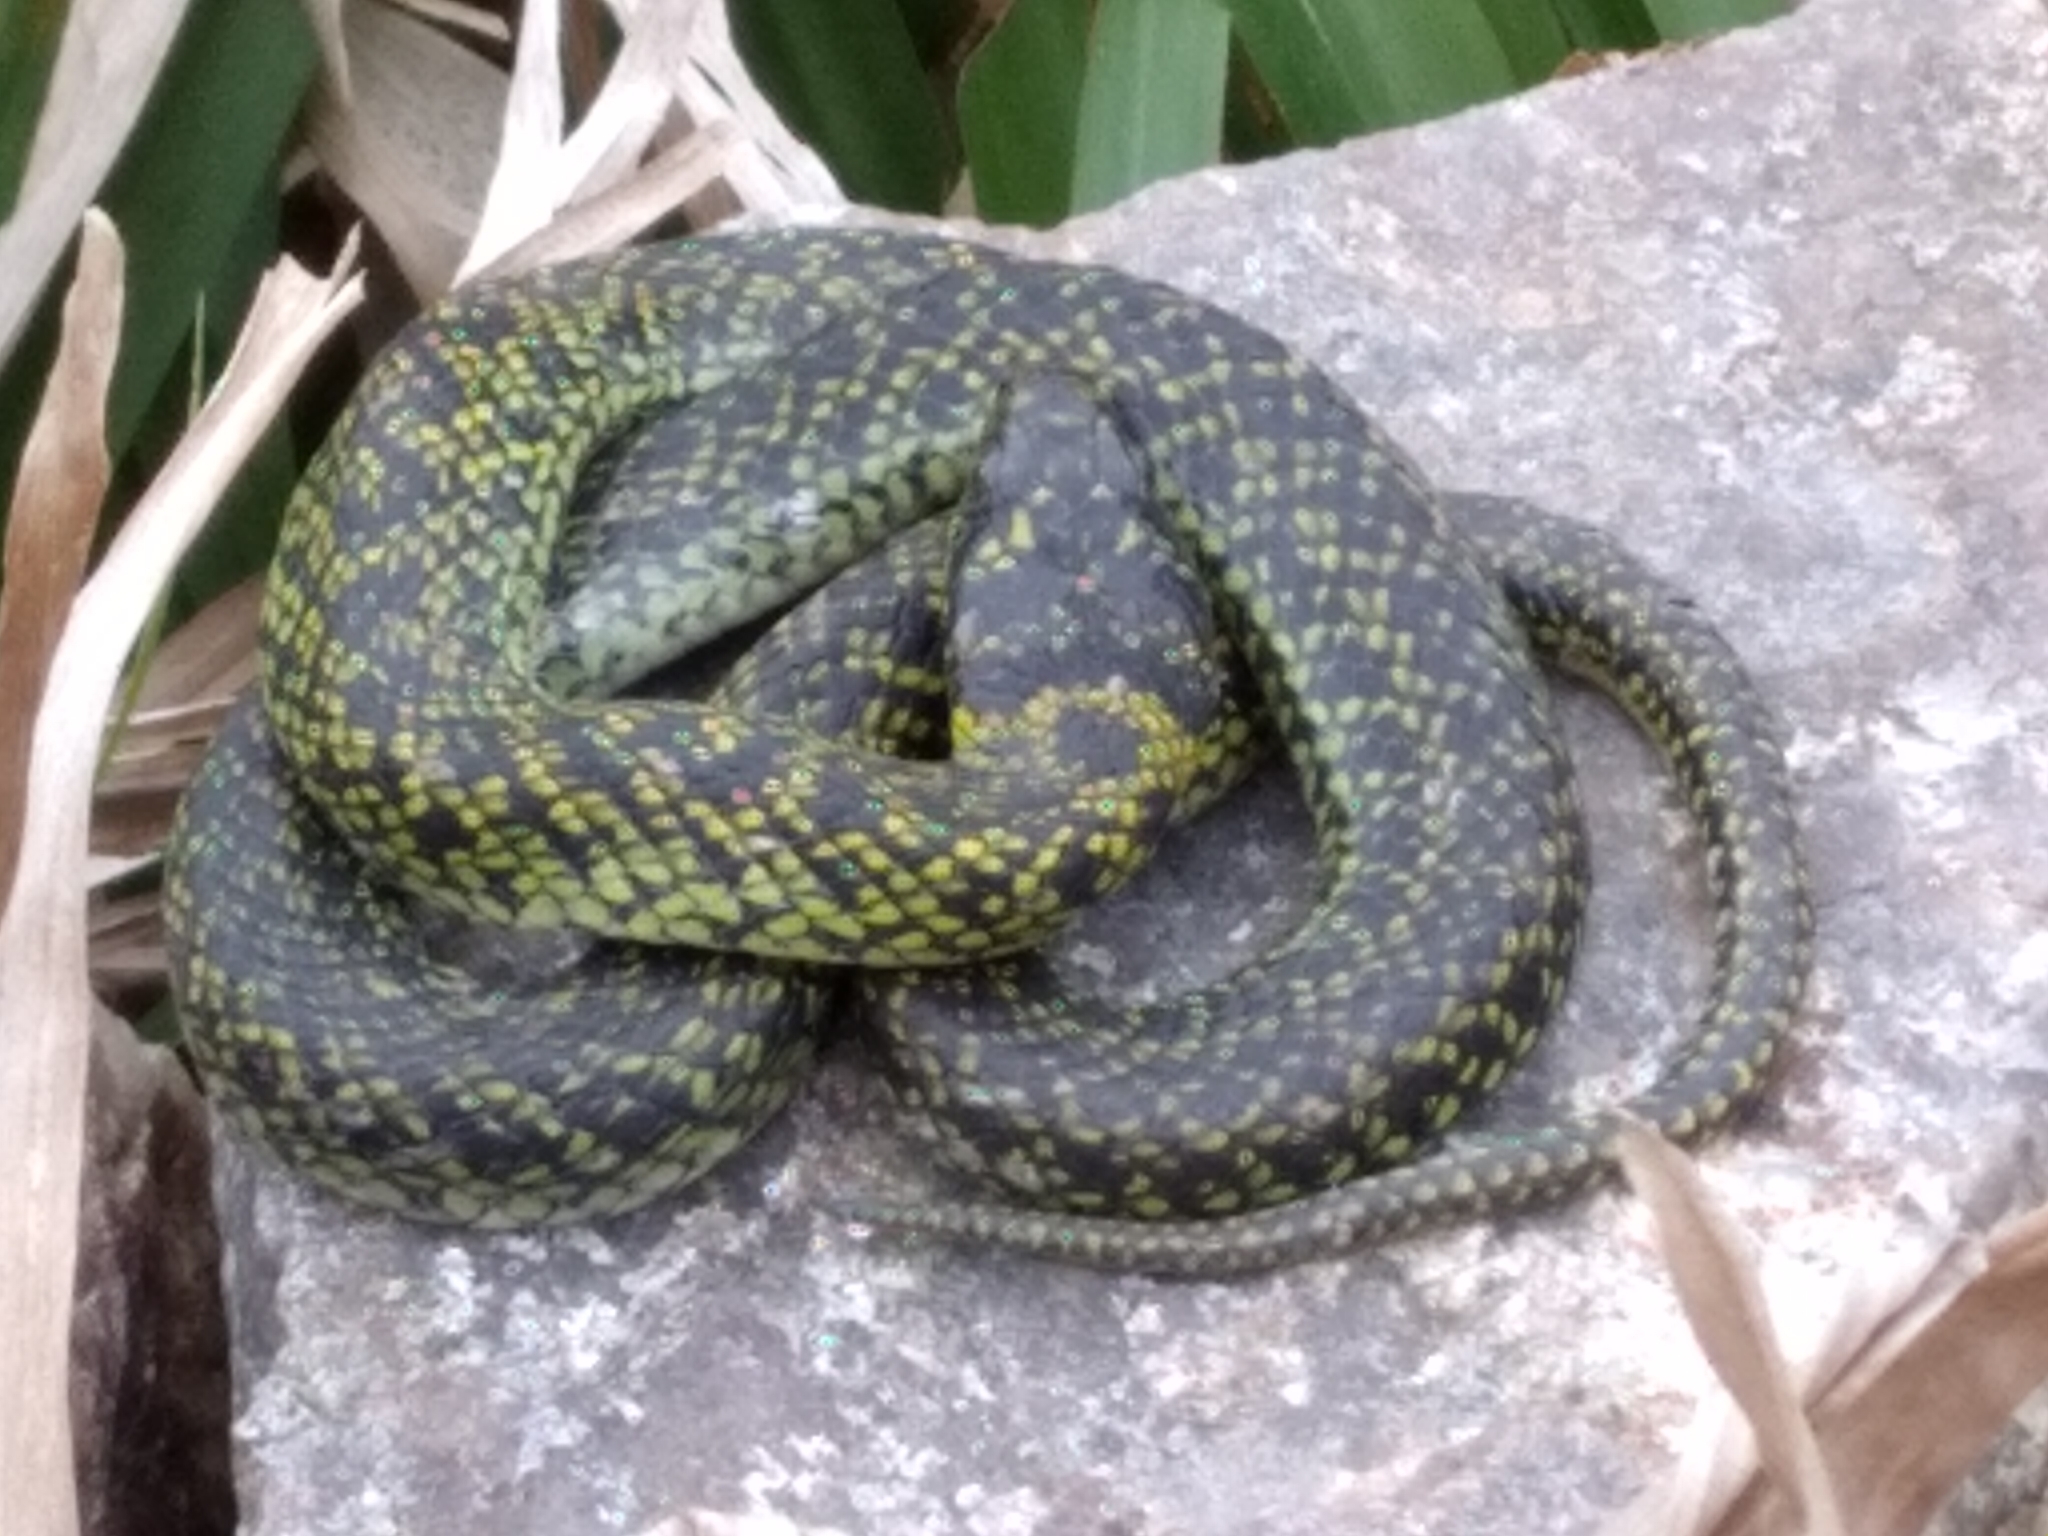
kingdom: Animalia
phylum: Chordata
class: Squamata
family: Colubridae
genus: Erythrolamprus
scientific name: Erythrolamprus poecilogyrus
